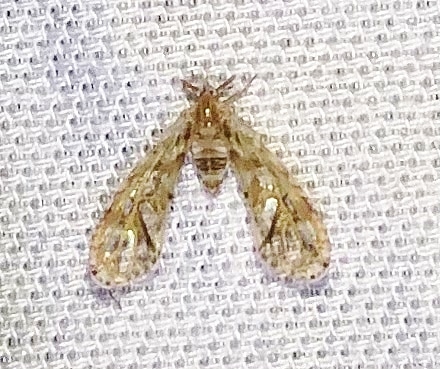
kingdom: Animalia
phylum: Arthropoda
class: Insecta
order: Hemiptera
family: Derbidae
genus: Anotia
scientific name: Anotia kirkaldyi
